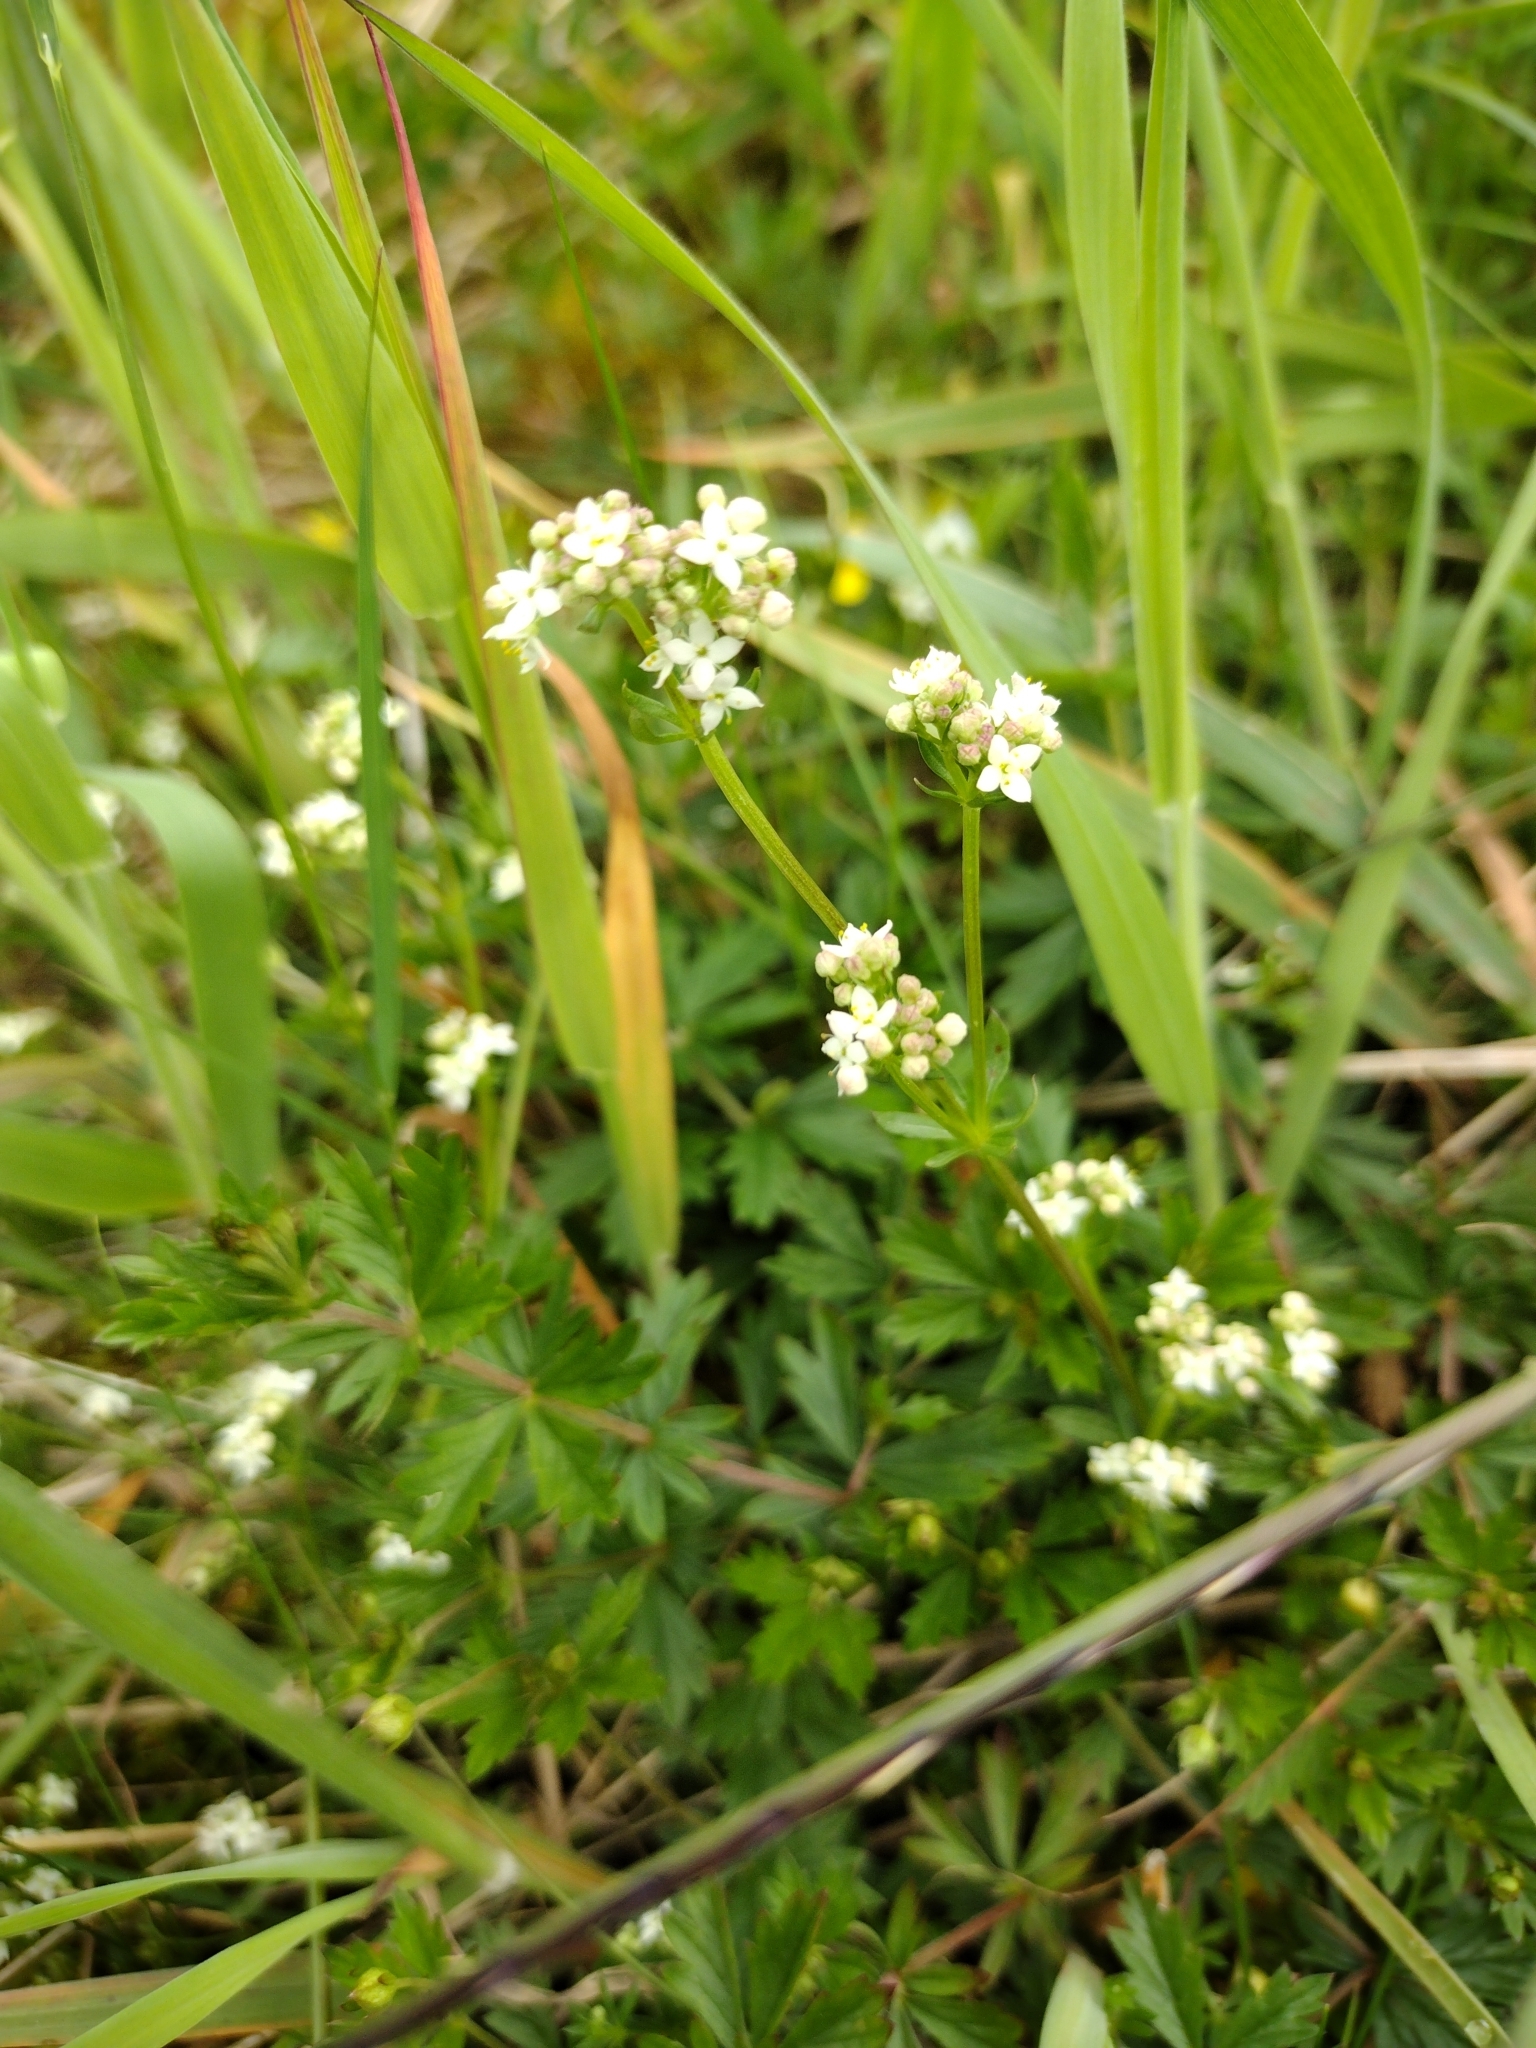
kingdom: Plantae
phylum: Tracheophyta
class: Magnoliopsida
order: Gentianales
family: Rubiaceae
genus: Galium
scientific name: Galium saxatile
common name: Heath bedstraw
